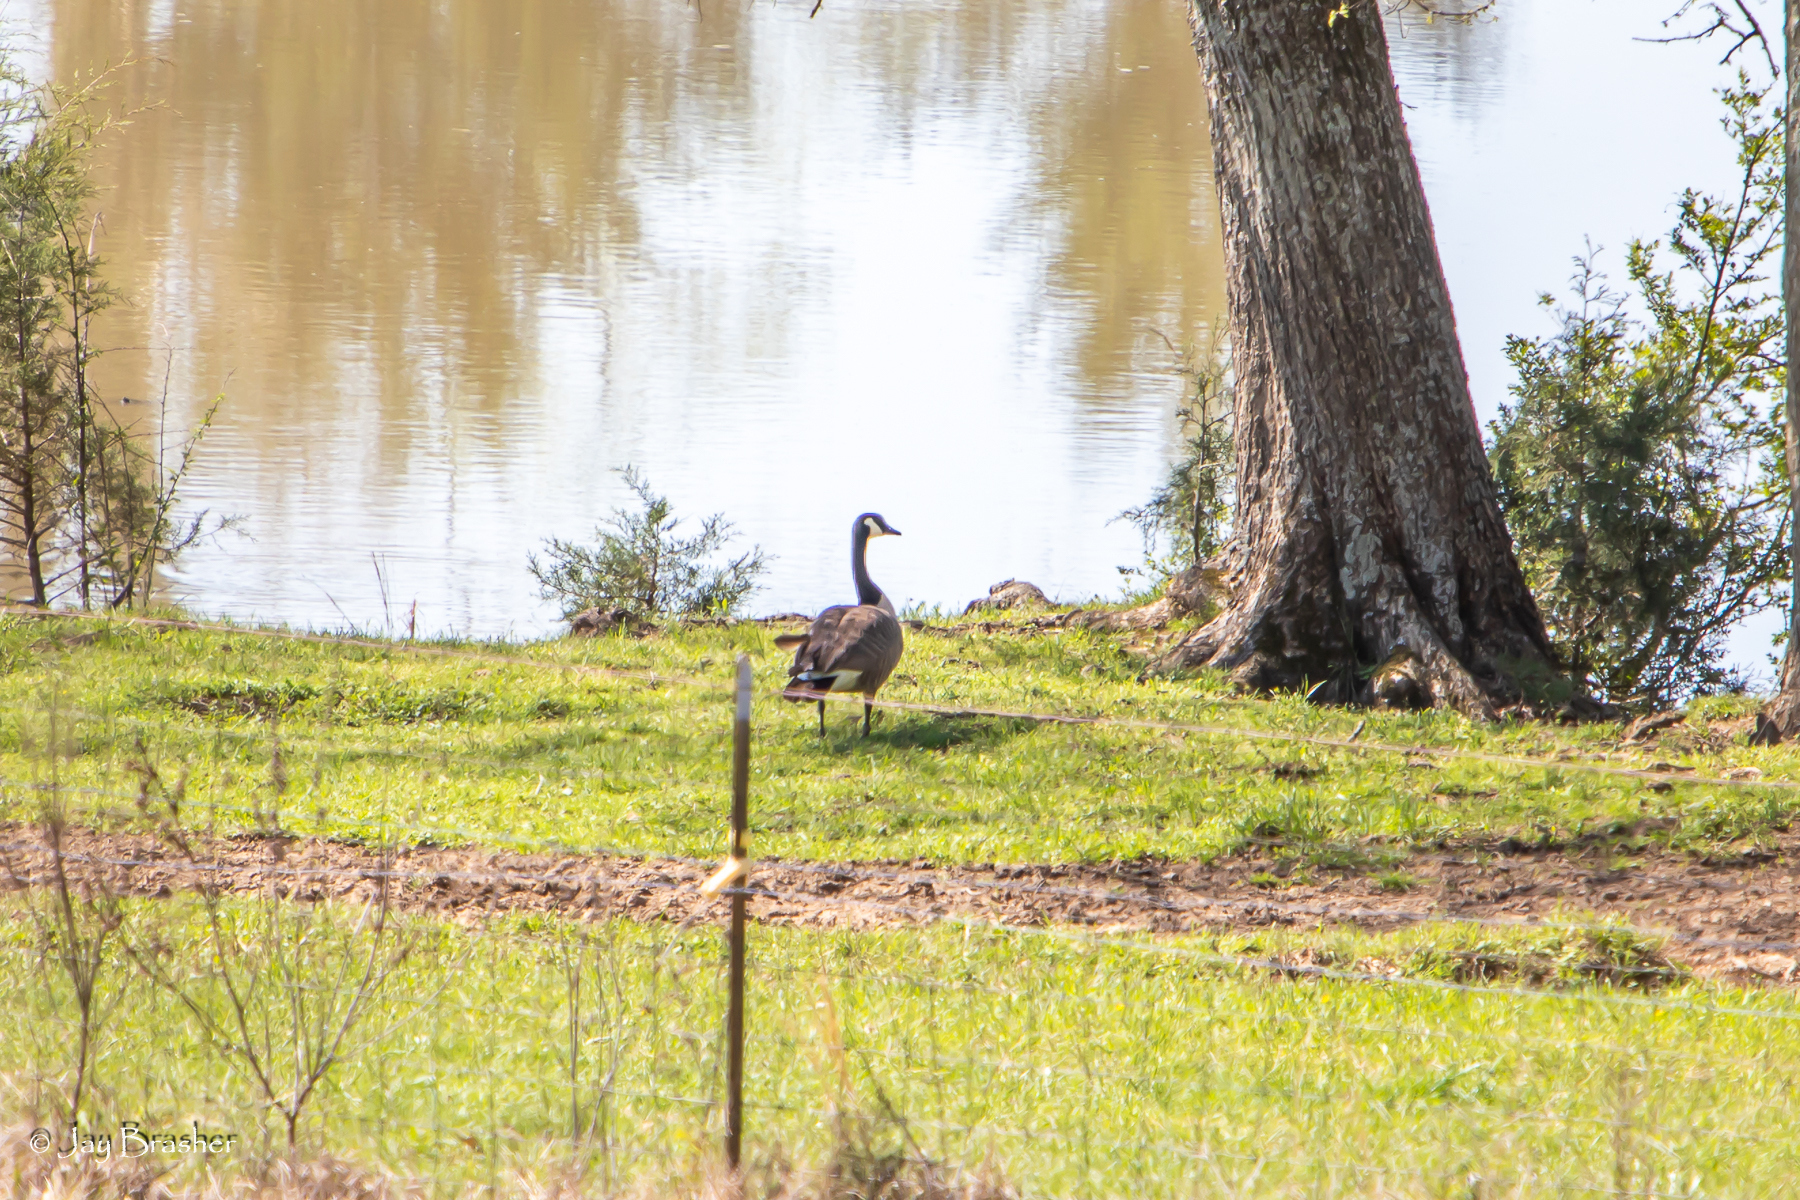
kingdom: Animalia
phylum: Chordata
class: Aves
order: Anseriformes
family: Anatidae
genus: Branta
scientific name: Branta canadensis
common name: Canada goose
